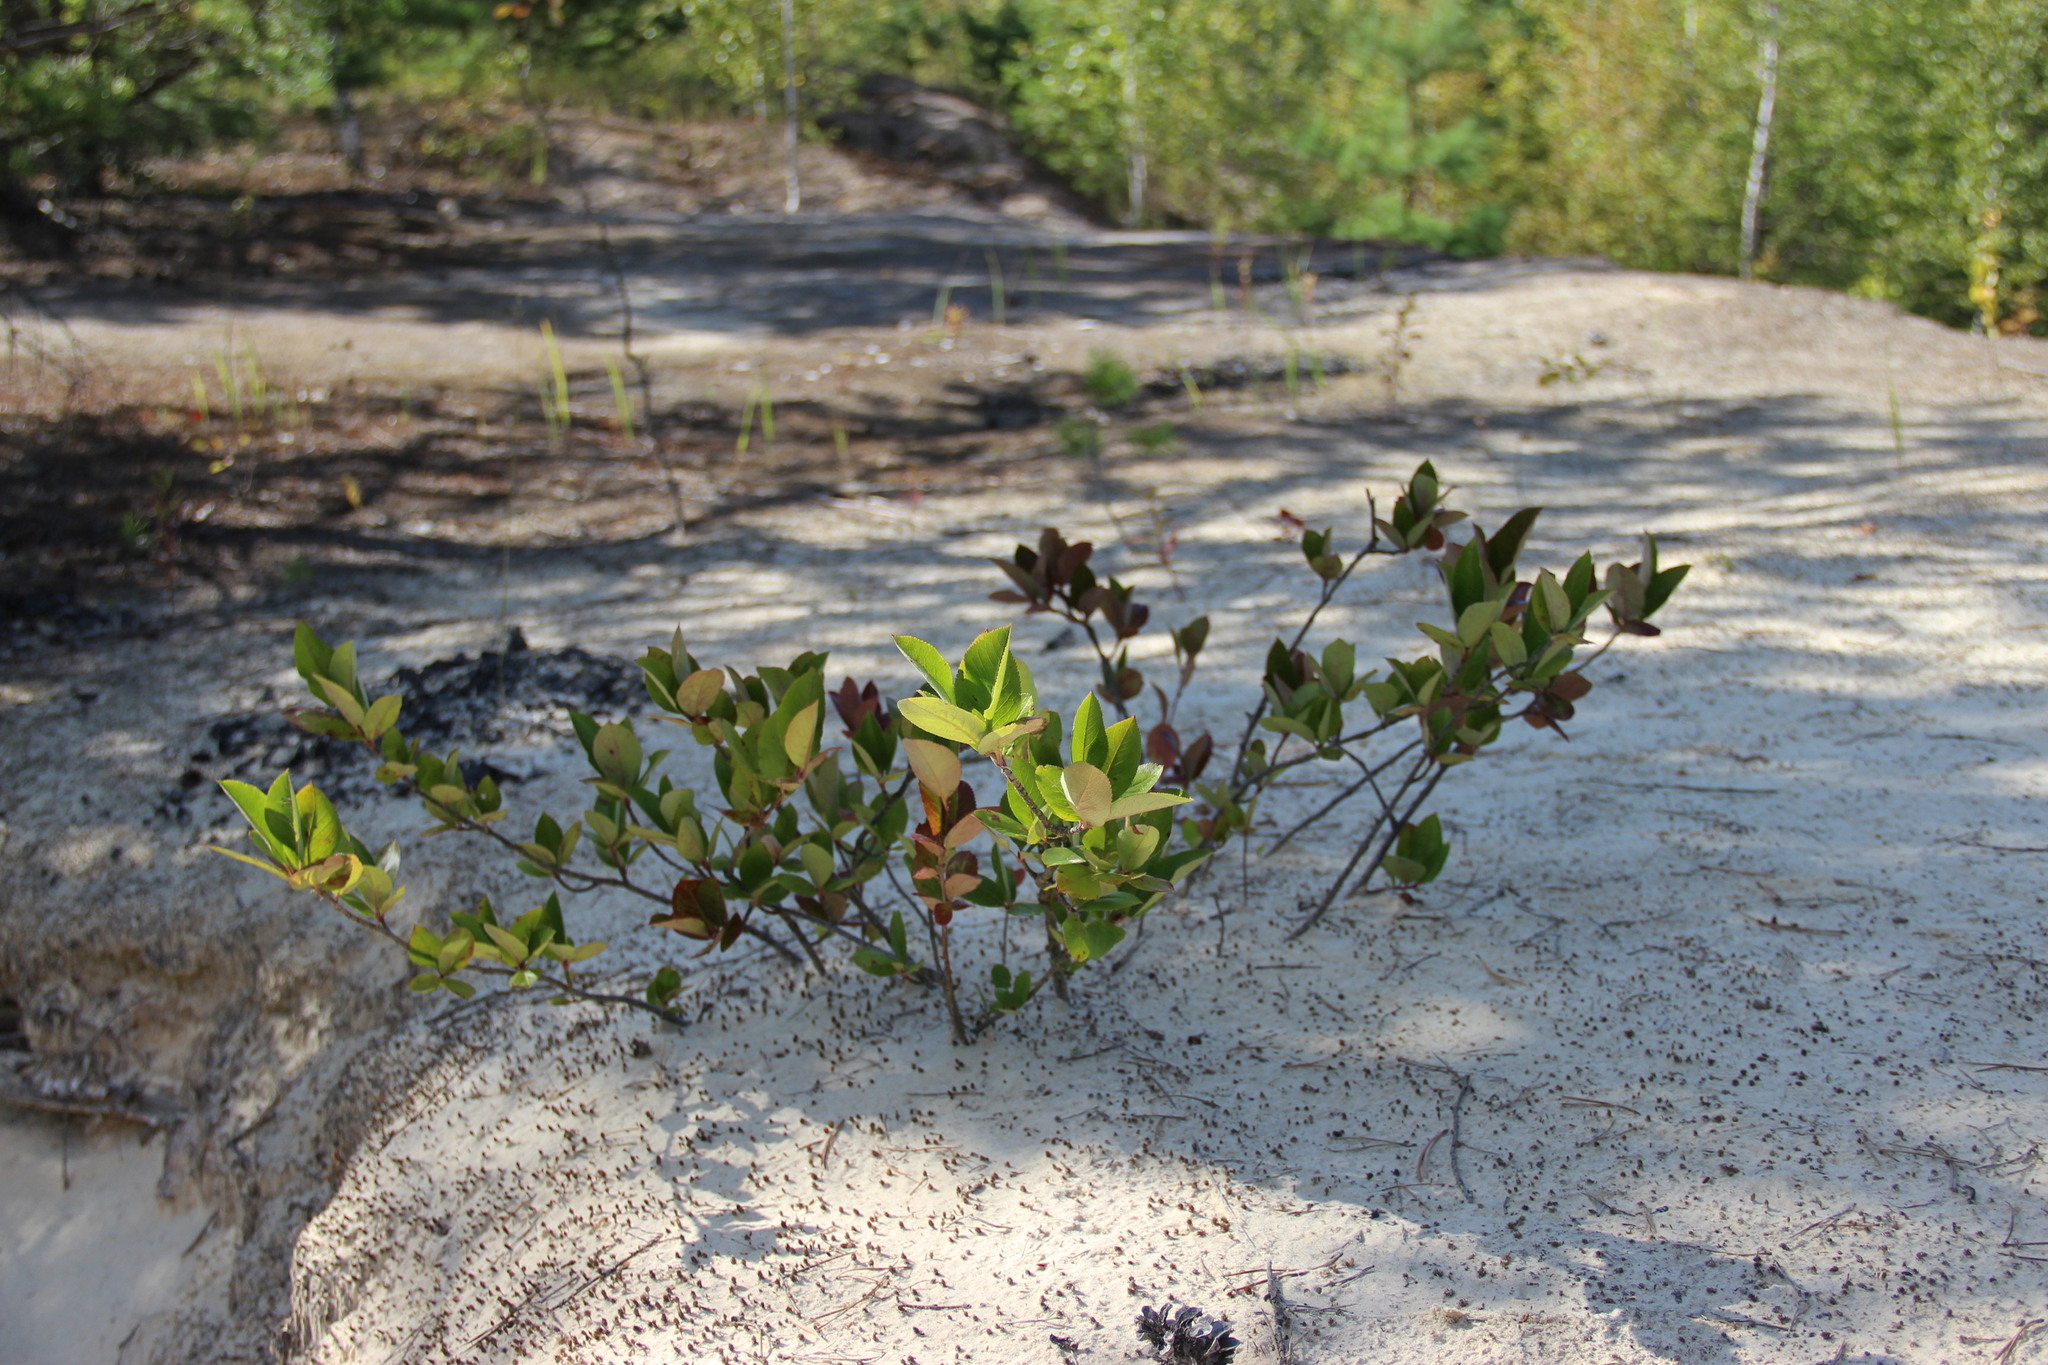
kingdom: Plantae
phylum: Tracheophyta
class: Magnoliopsida
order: Rosales
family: Rosaceae
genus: Sorbaronia
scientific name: Sorbaronia arsenii
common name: Arsène's mountain-ash
